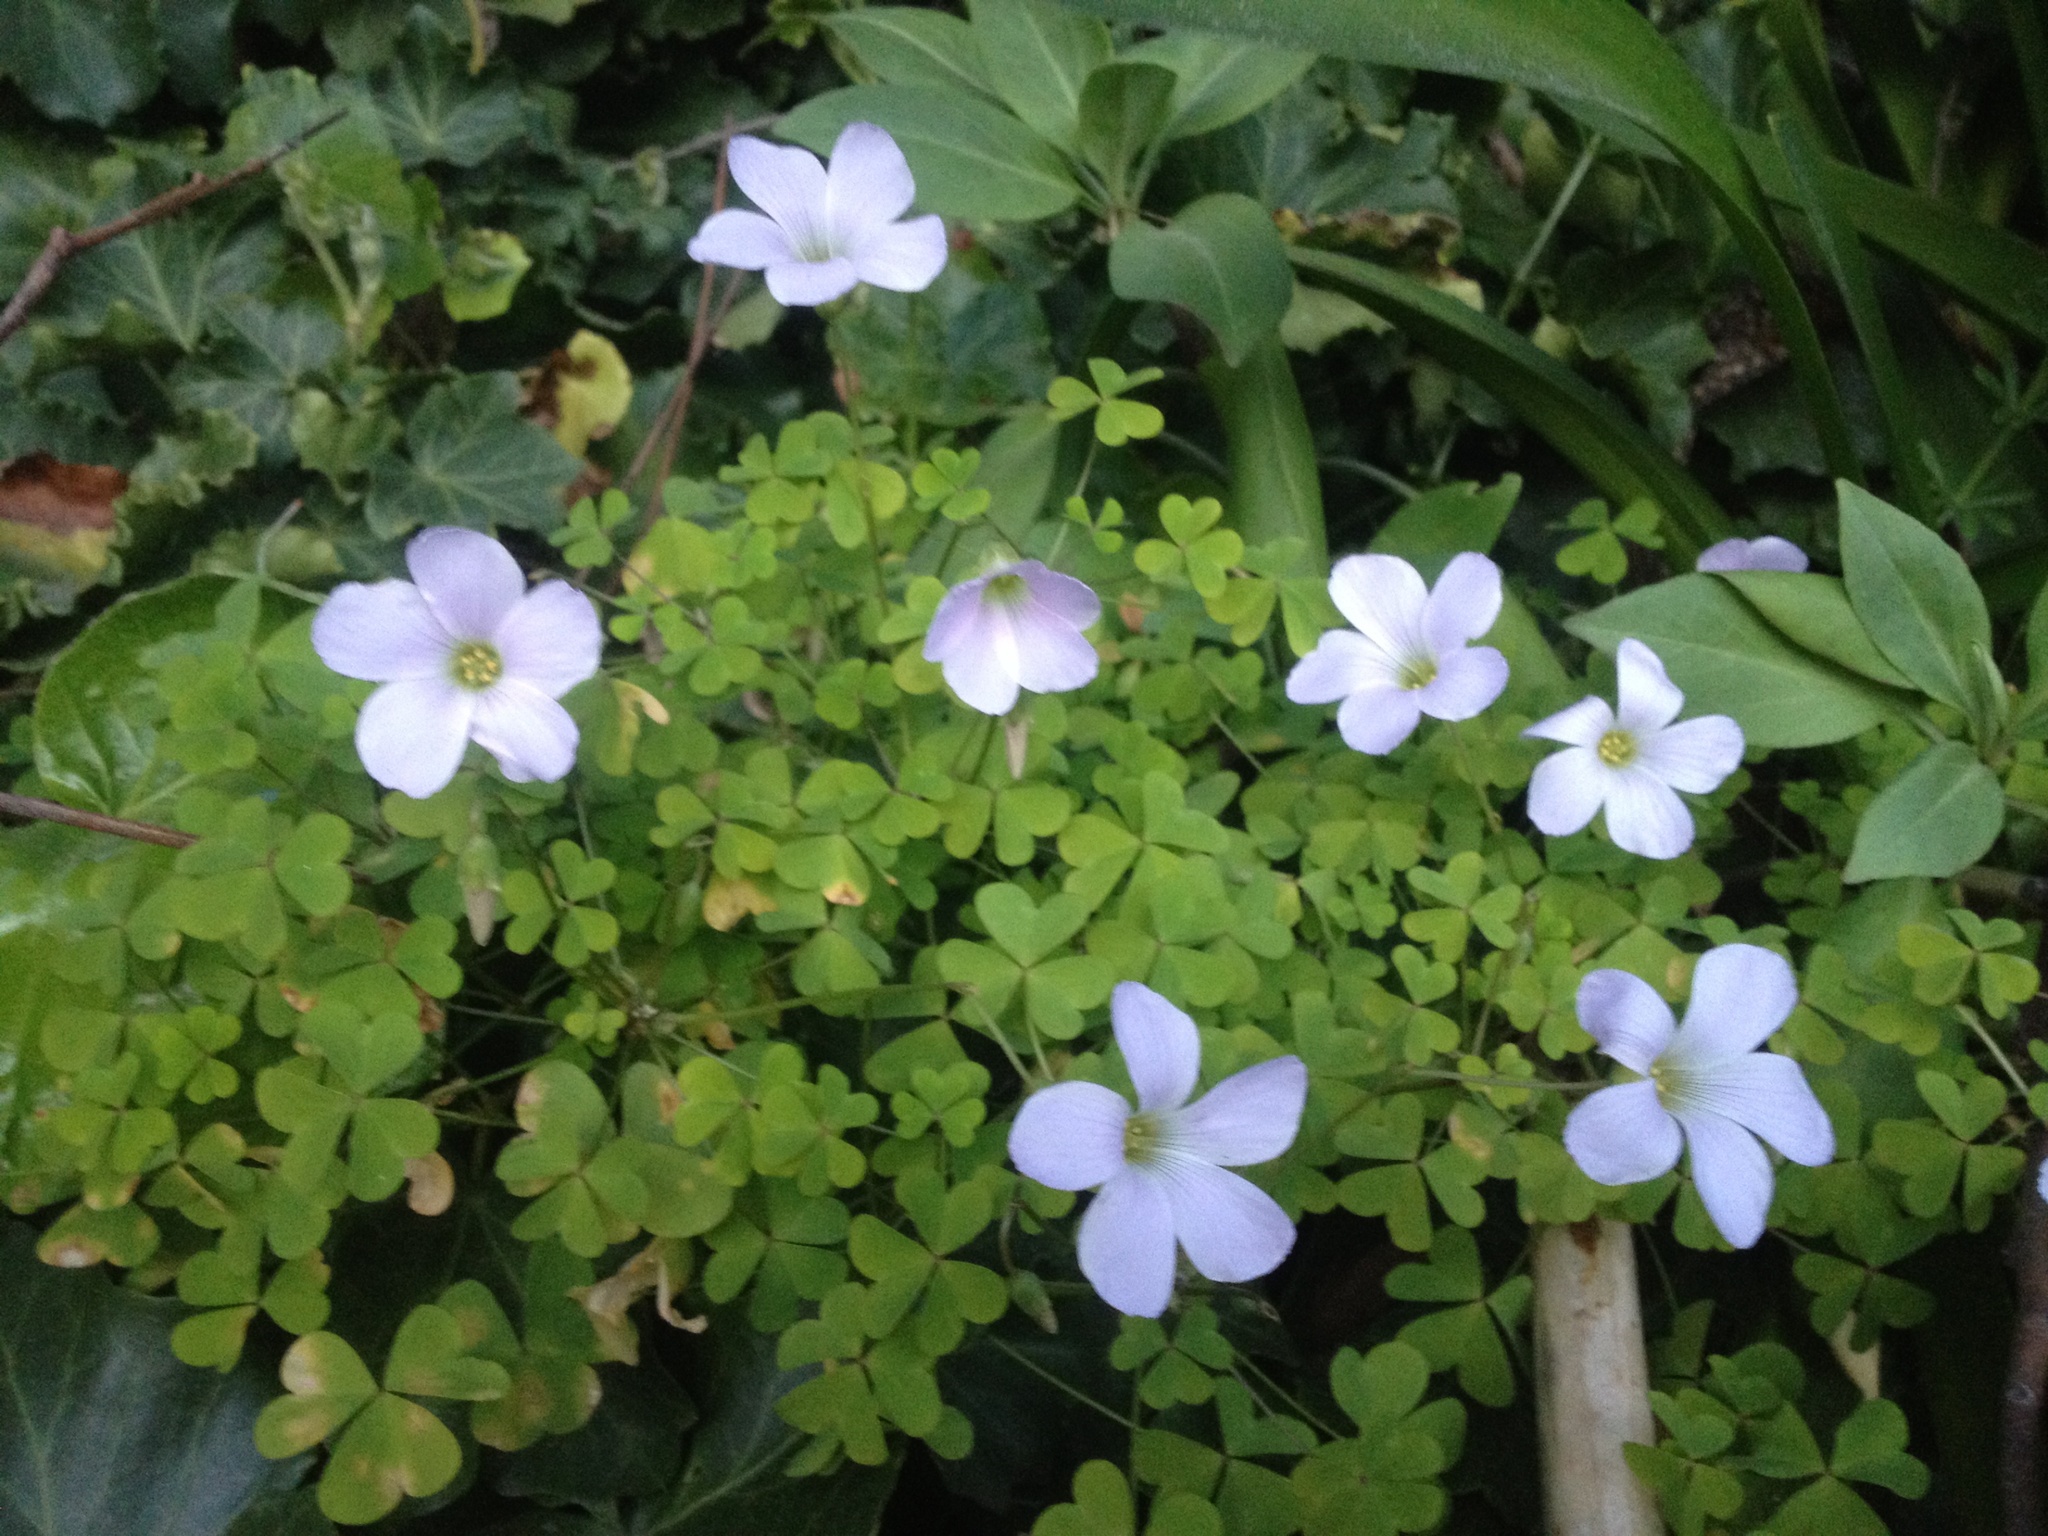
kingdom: Plantae
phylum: Tracheophyta
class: Magnoliopsida
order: Oxalidales
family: Oxalidaceae
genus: Oxalis
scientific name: Oxalis incarnata
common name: Pale pink-sorrel
